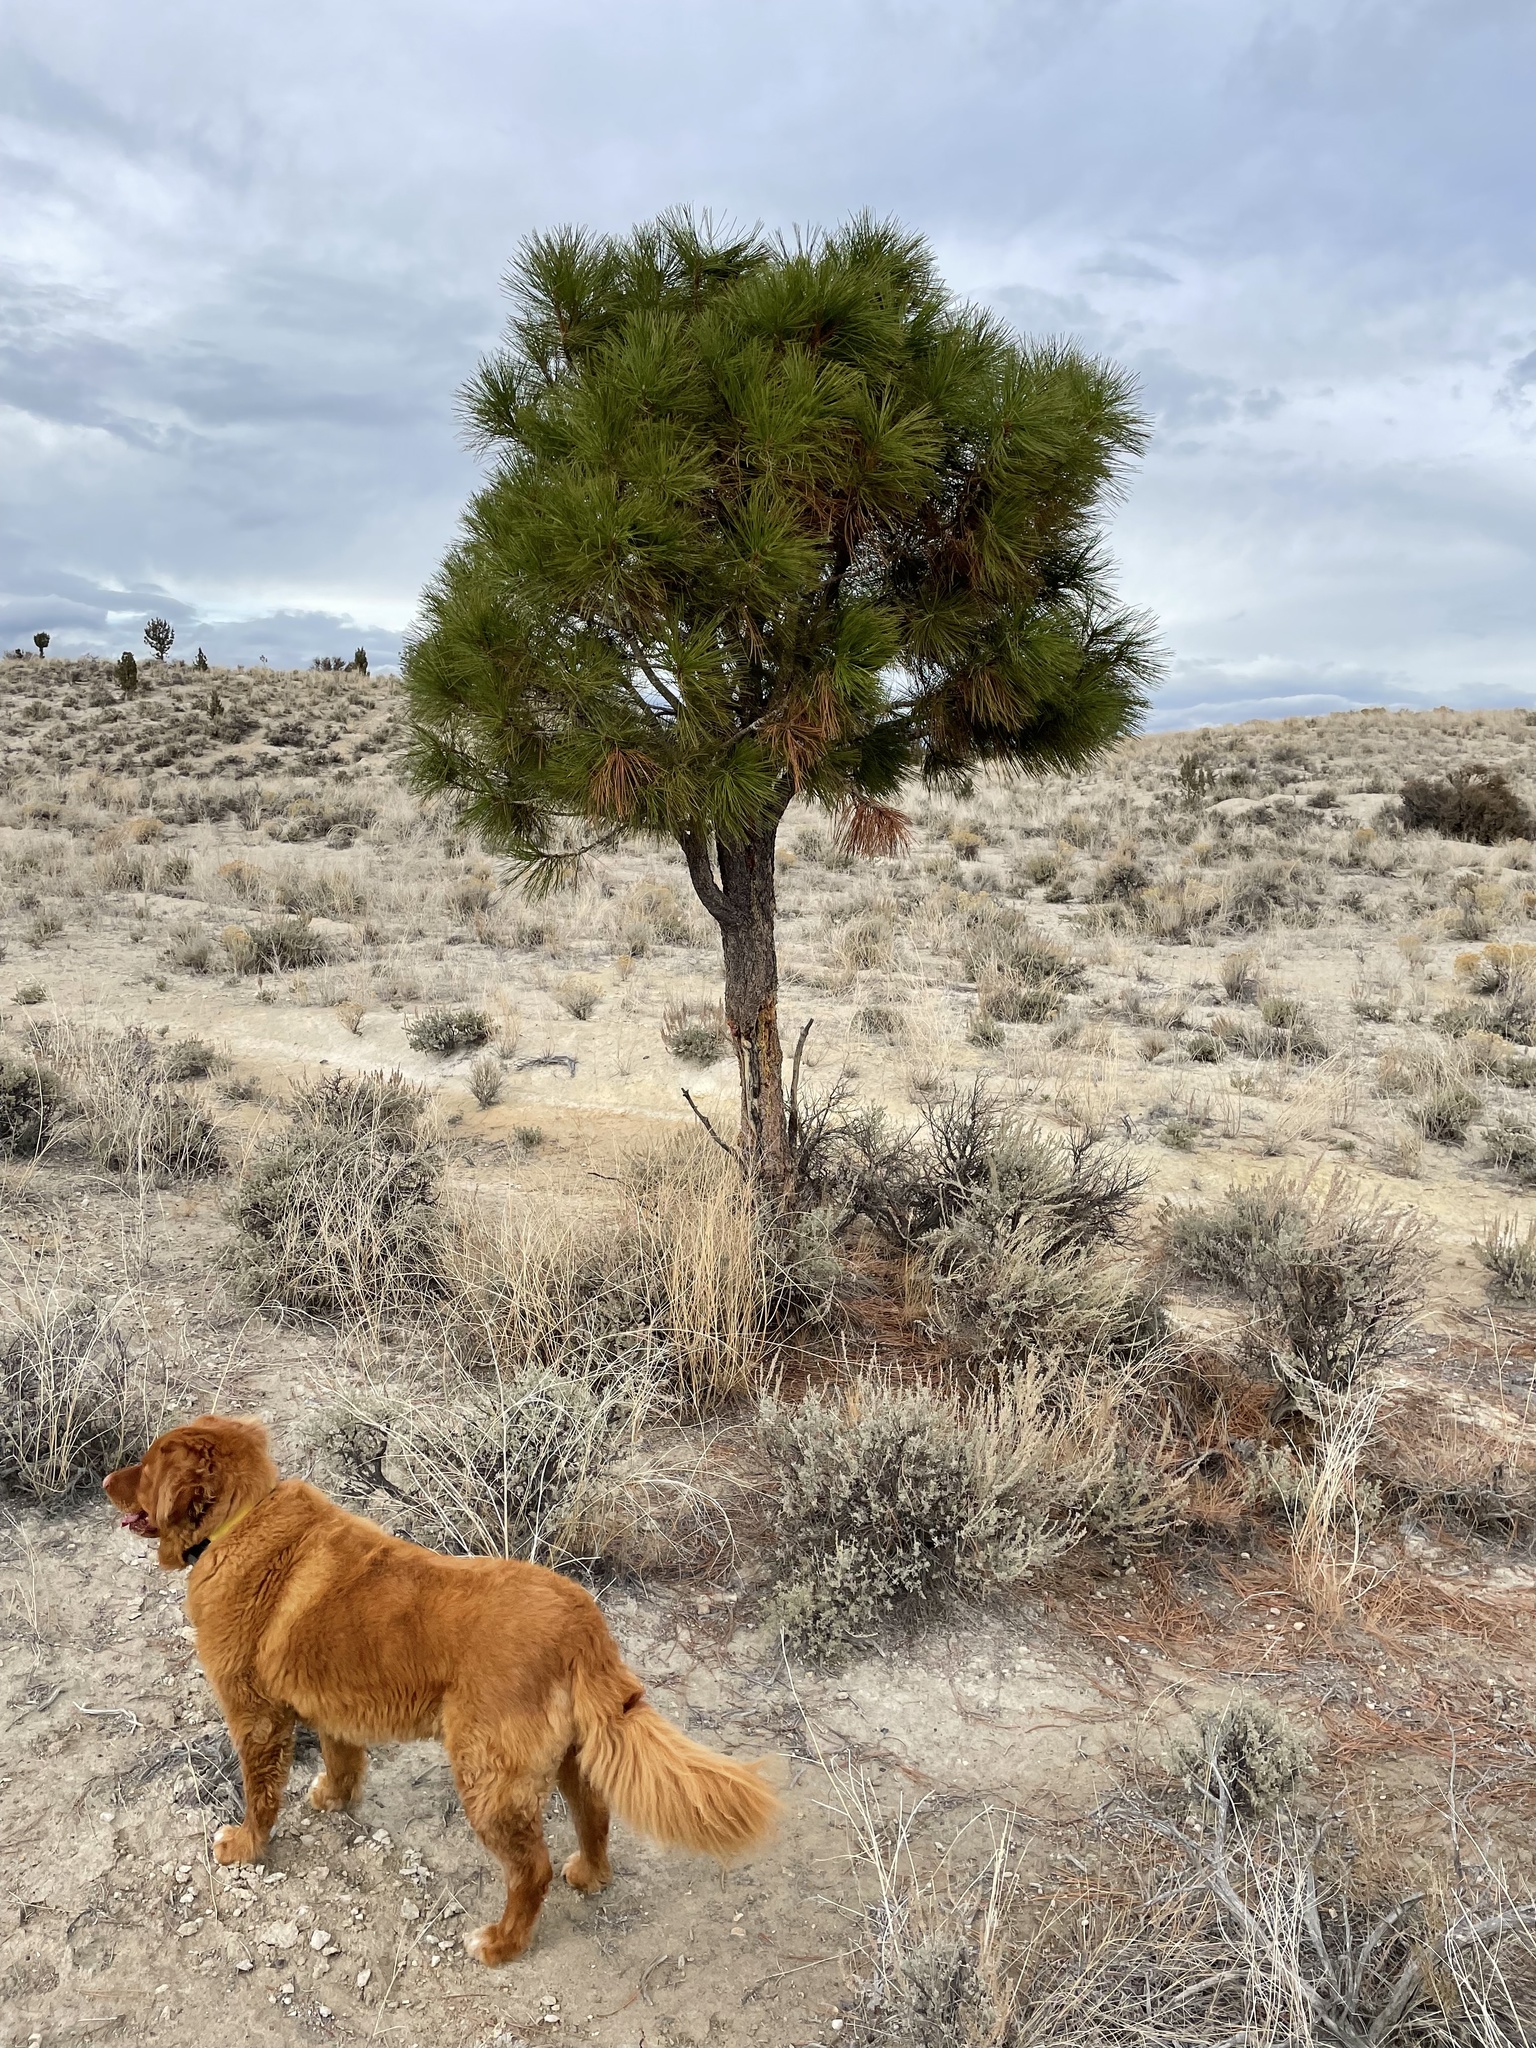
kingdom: Plantae
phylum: Tracheophyta
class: Pinopsida
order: Pinales
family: Pinaceae
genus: Pinus
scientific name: Pinus ponderosa
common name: Western yellow-pine
